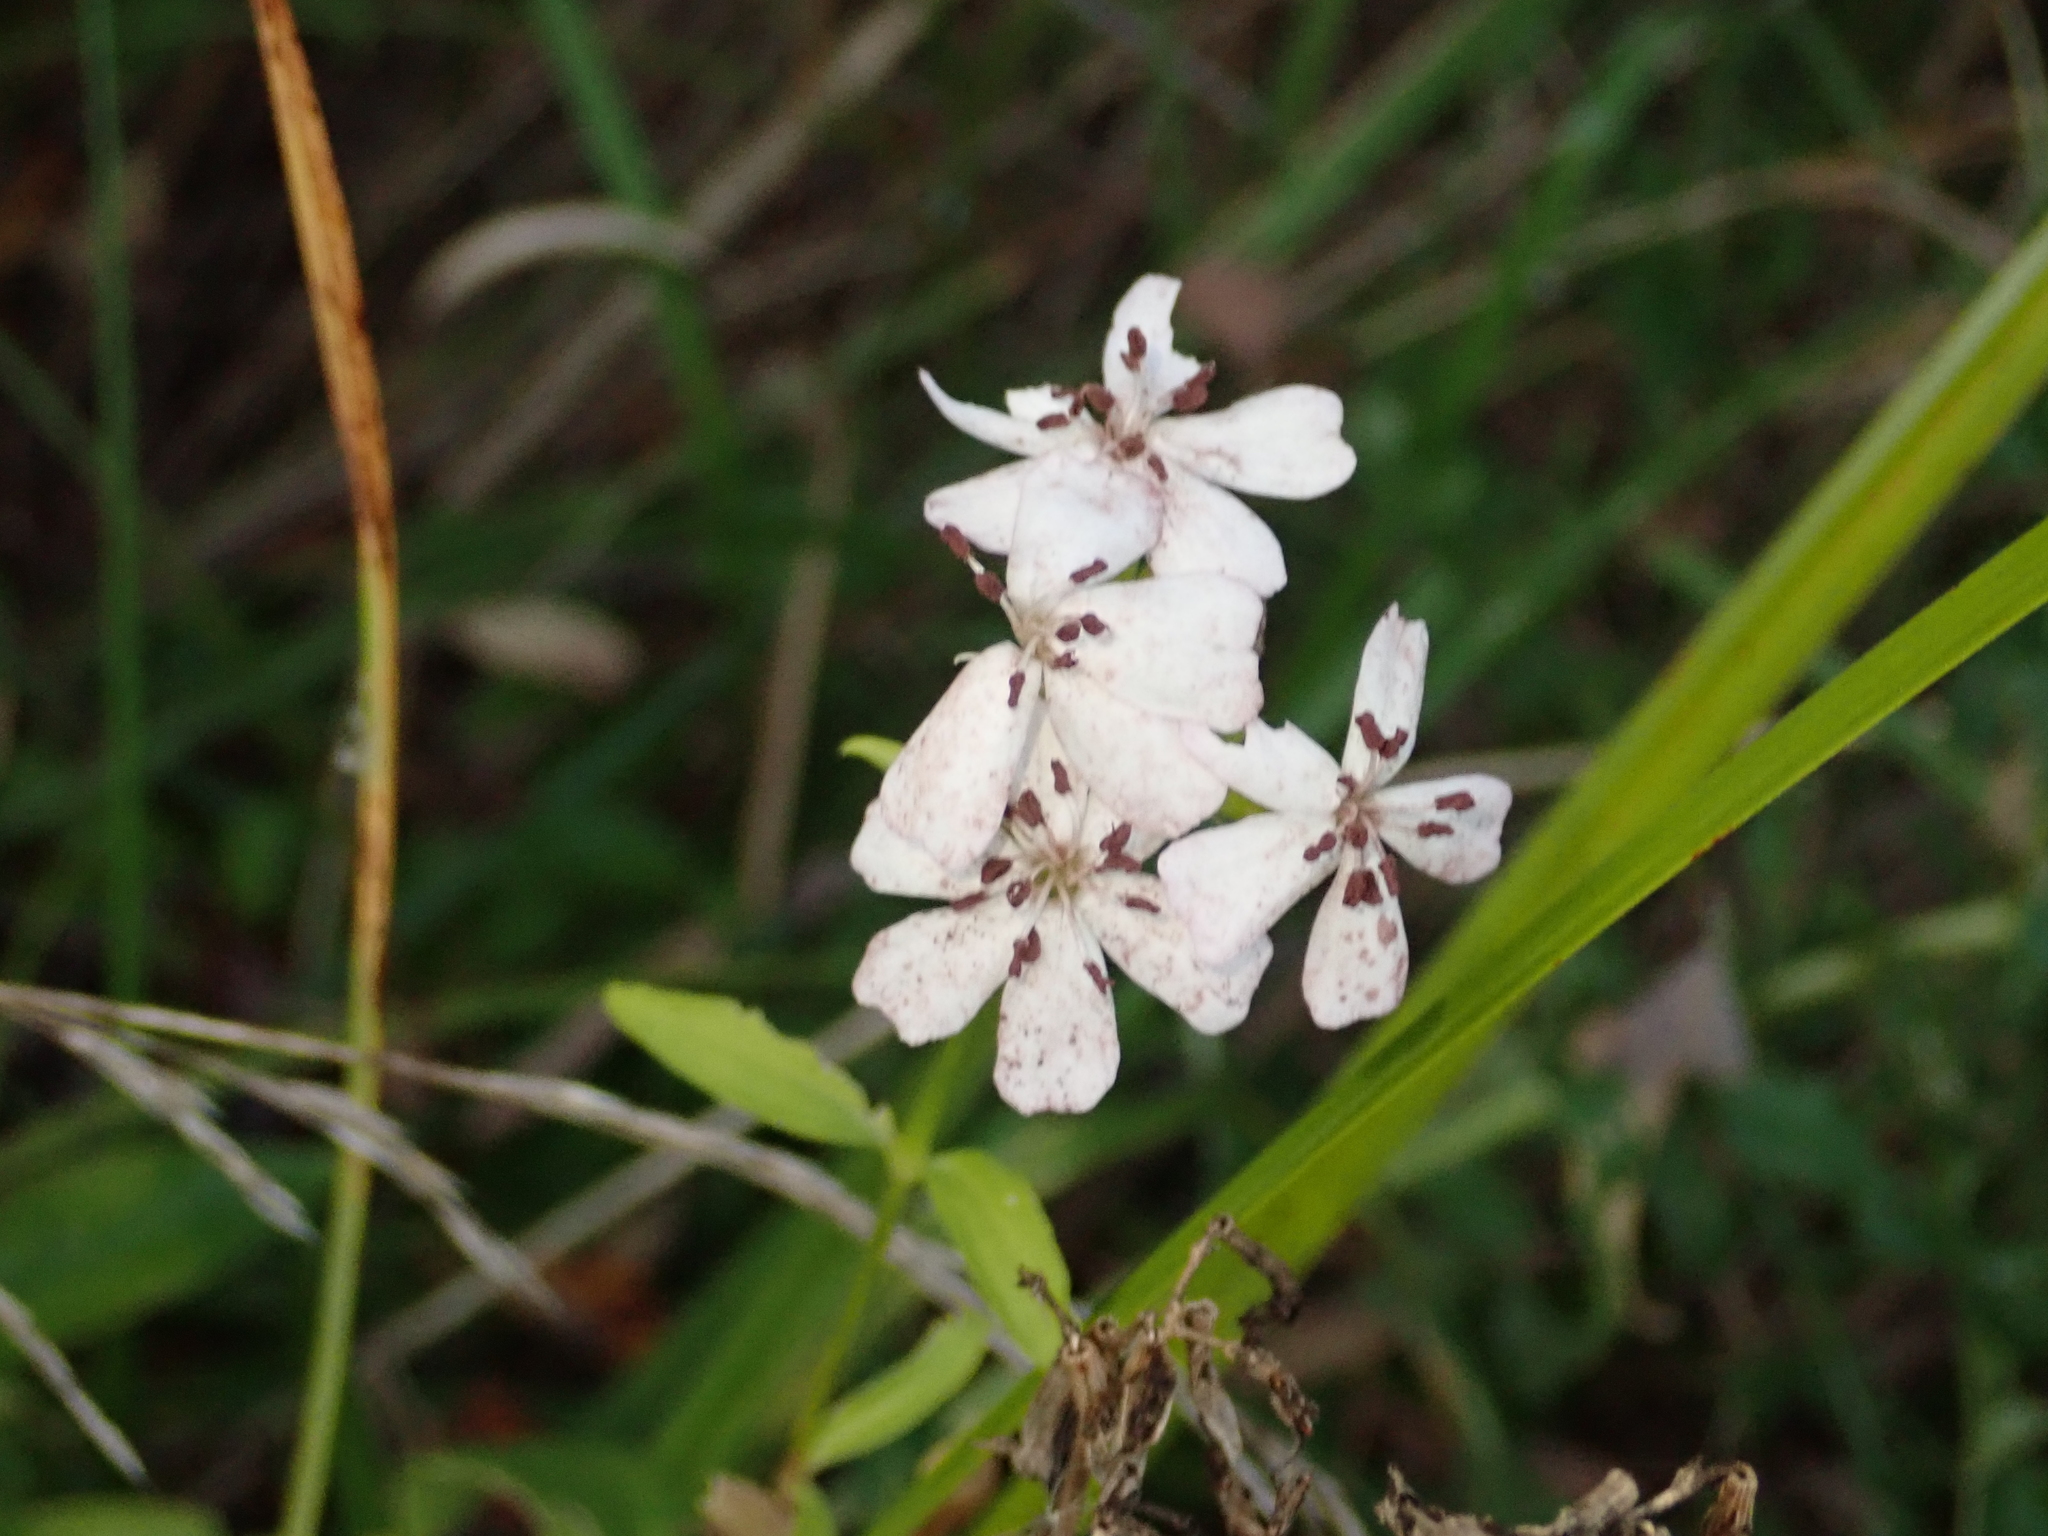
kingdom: Plantae
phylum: Tracheophyta
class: Magnoliopsida
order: Caryophyllales
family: Caryophyllaceae
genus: Saponaria
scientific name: Saponaria officinalis
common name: Soapwort
